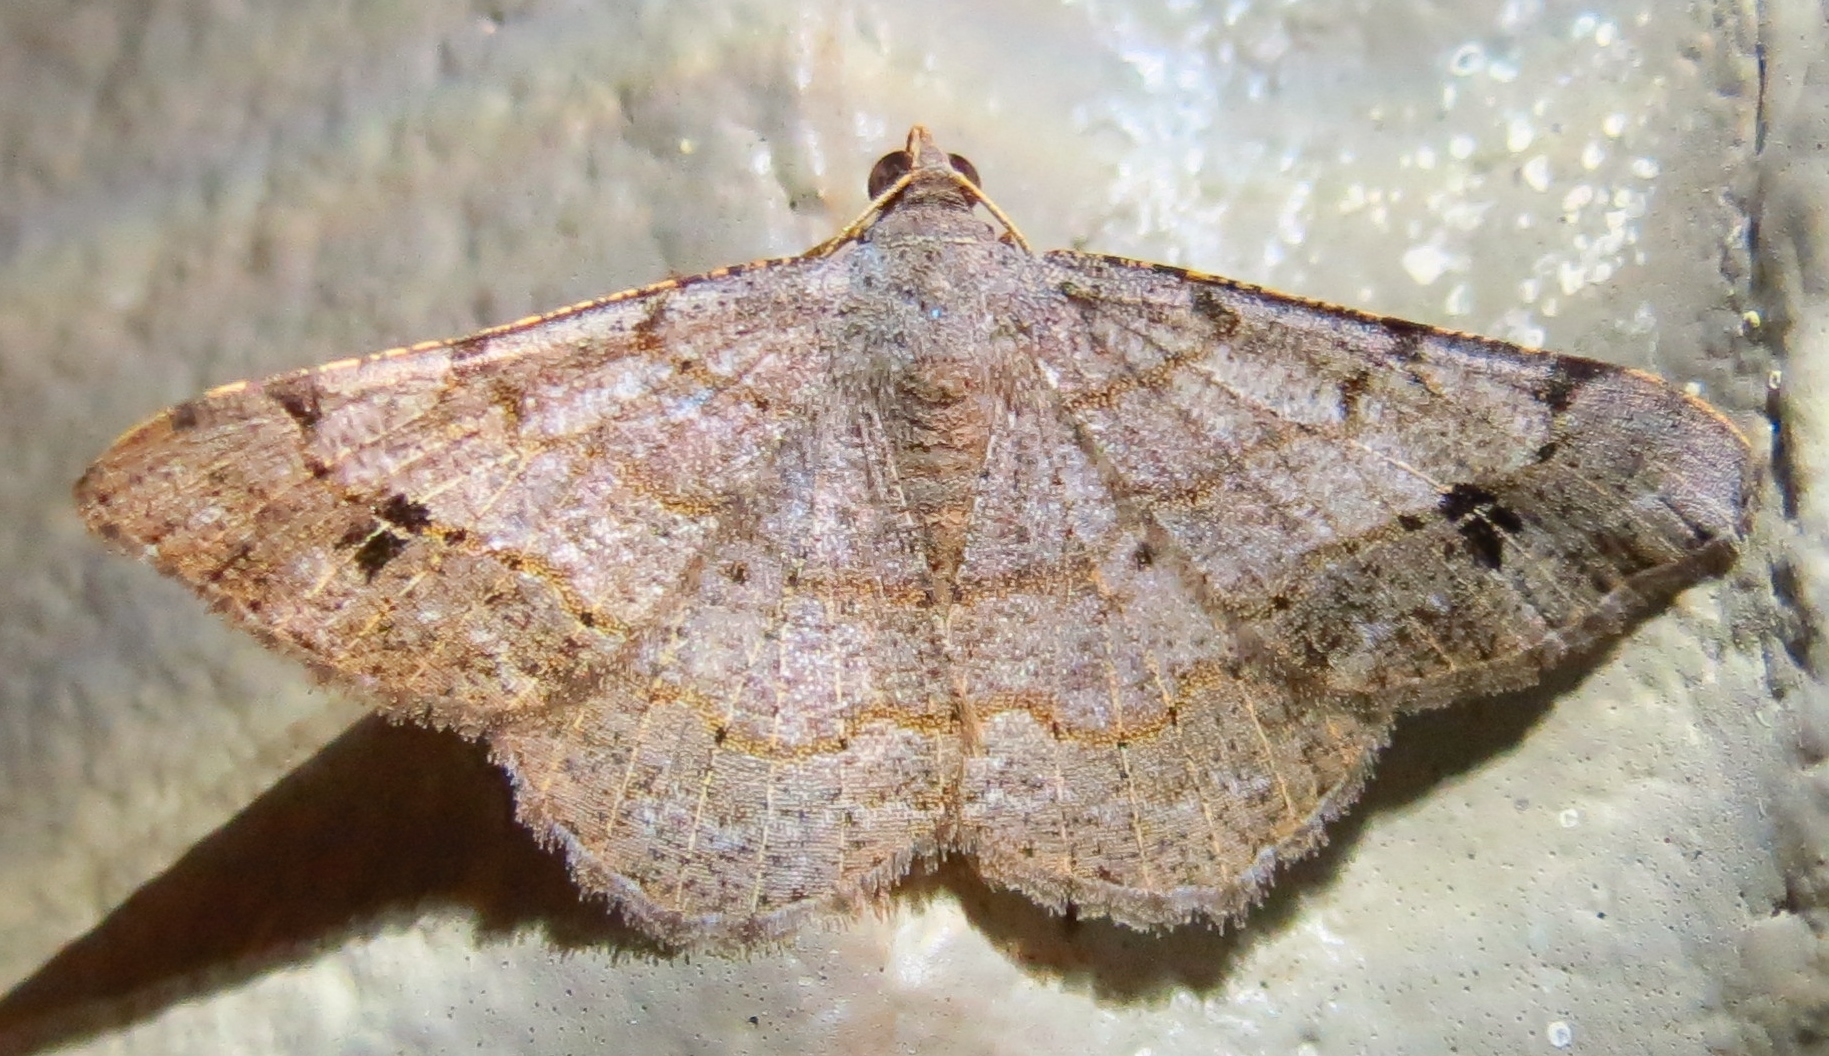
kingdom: Animalia
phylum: Arthropoda
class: Insecta
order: Lepidoptera
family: Geometridae
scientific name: Geometridae
